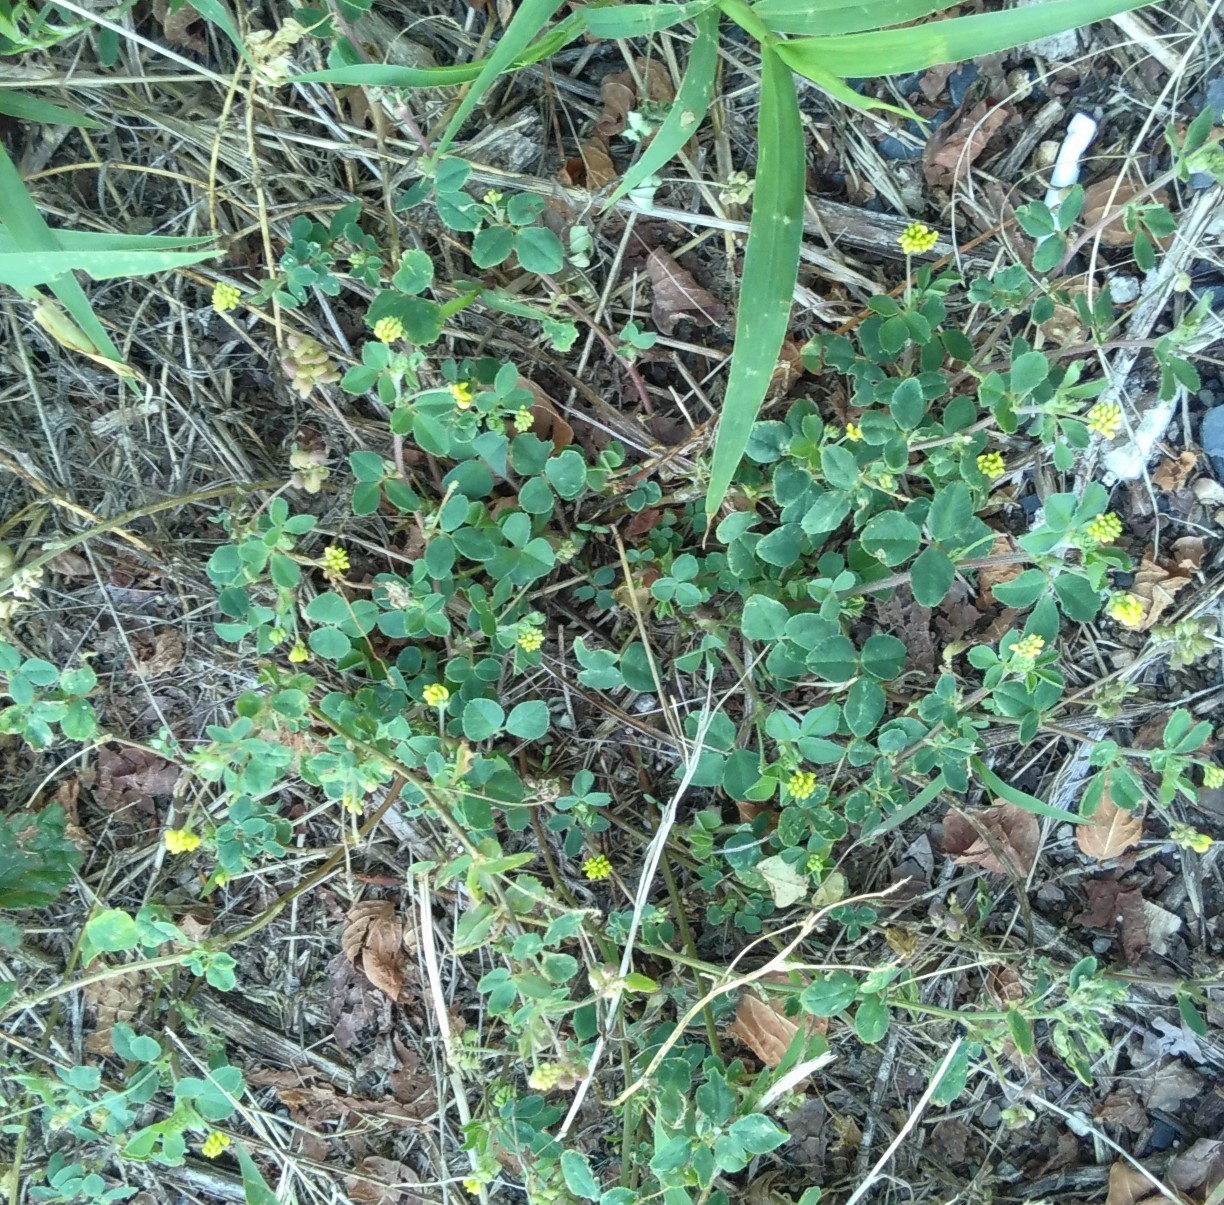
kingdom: Plantae
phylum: Tracheophyta
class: Magnoliopsida
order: Fabales
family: Fabaceae
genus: Medicago
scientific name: Medicago lupulina
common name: Black medick
